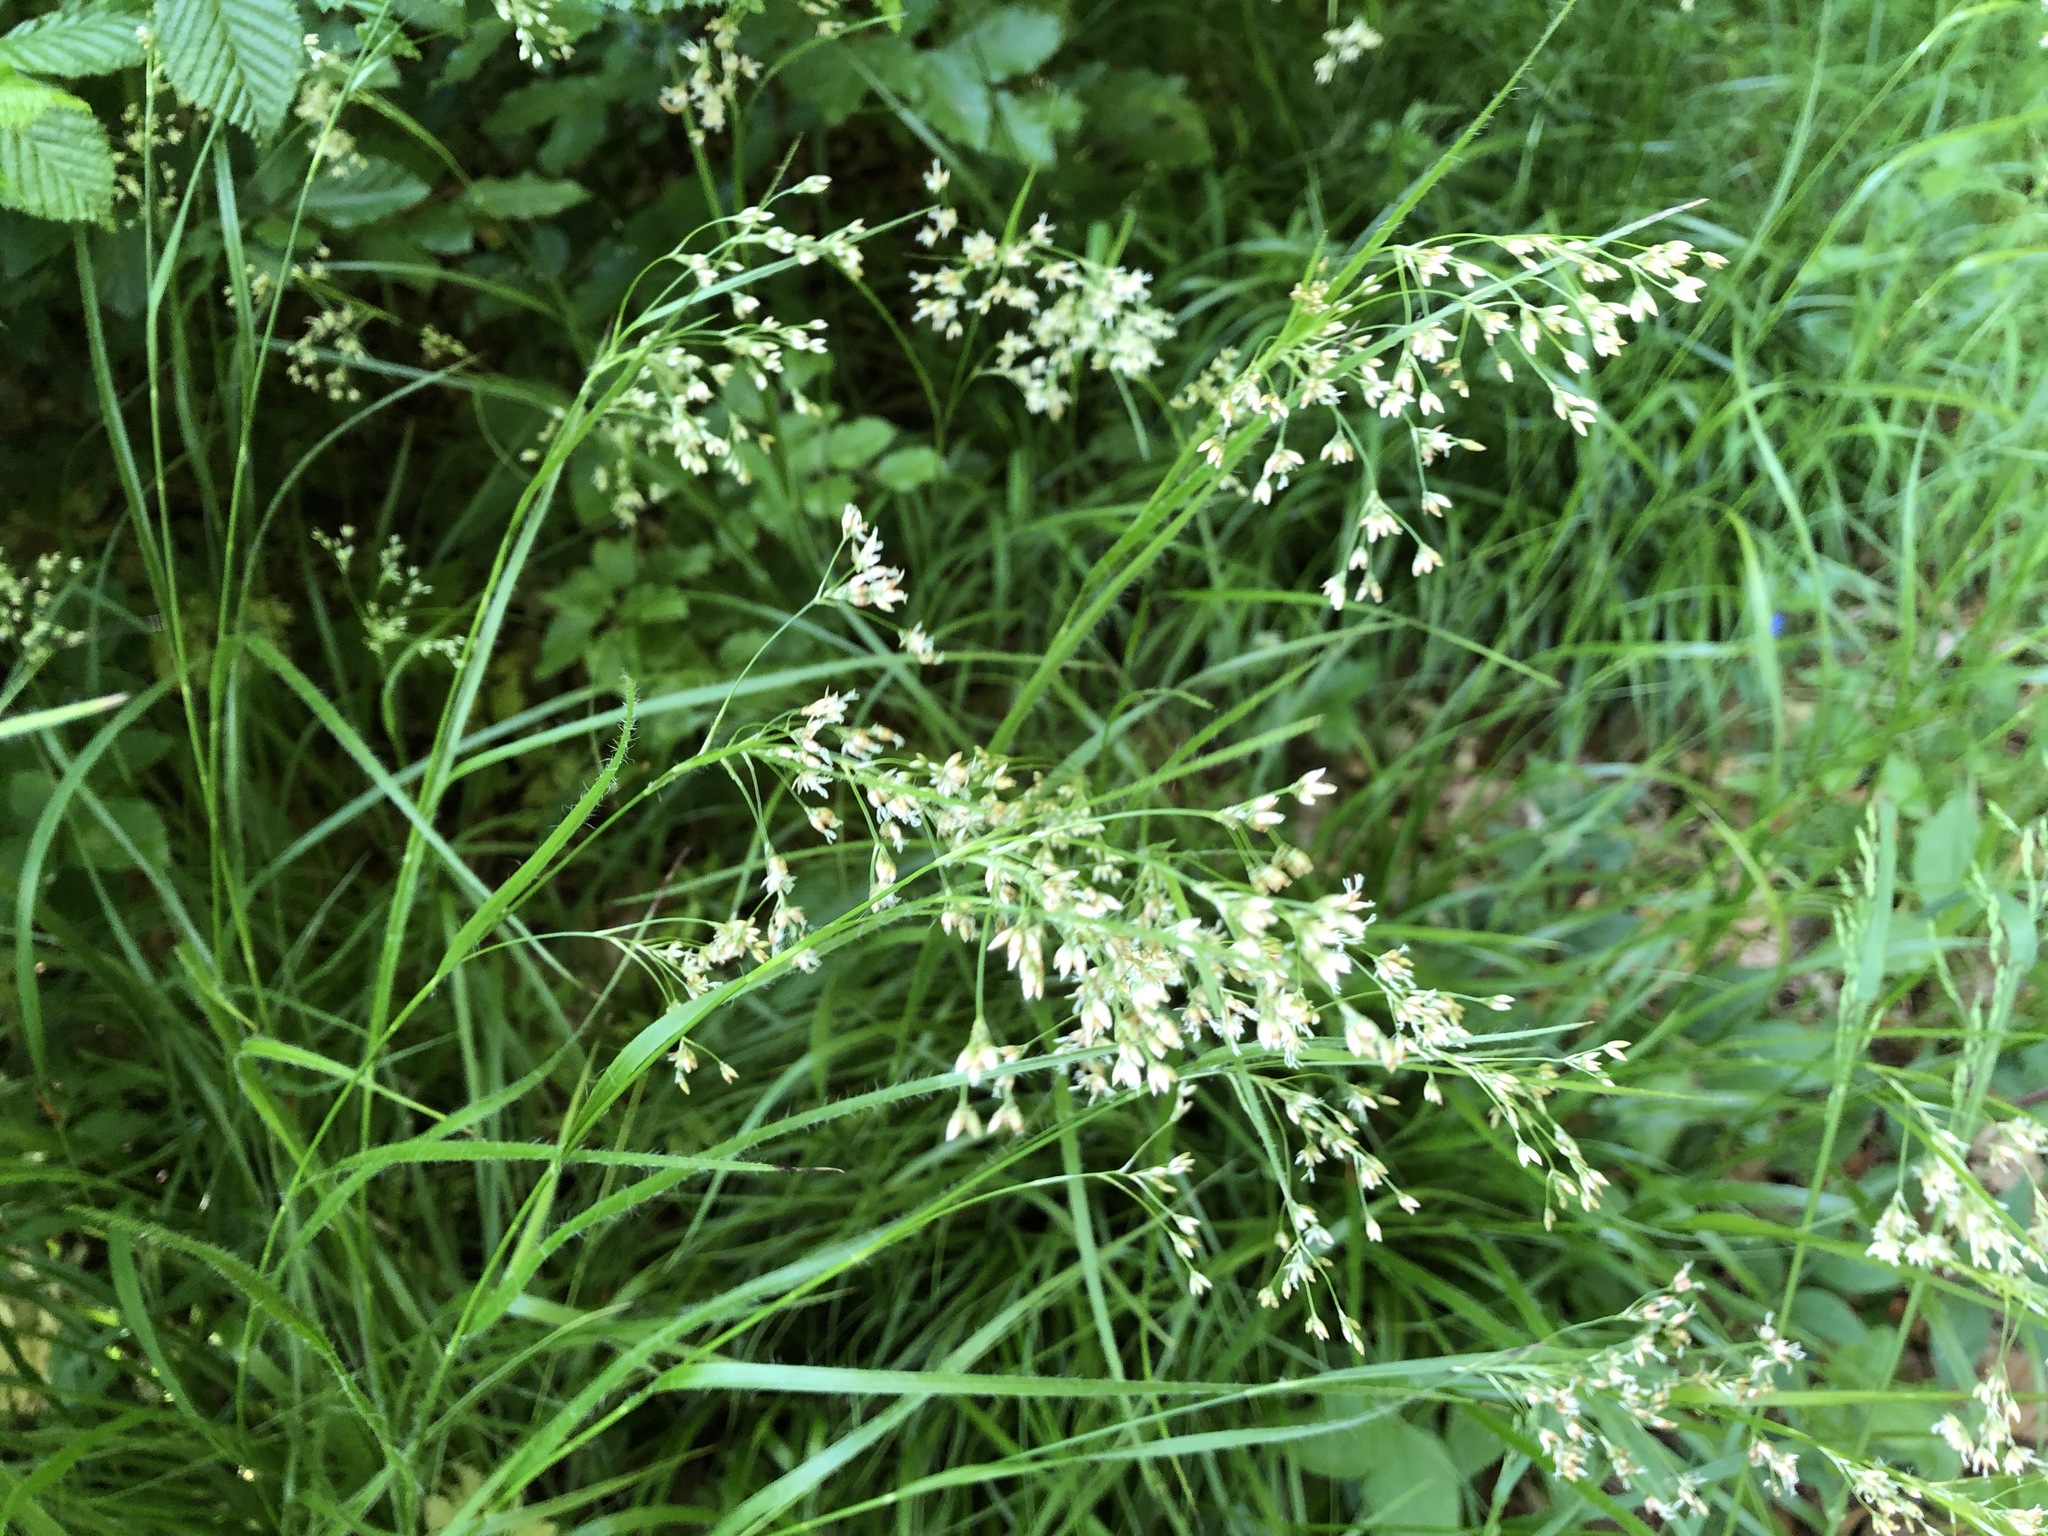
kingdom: Plantae
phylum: Tracheophyta
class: Liliopsida
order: Poales
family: Juncaceae
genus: Luzula
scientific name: Luzula luzuloides
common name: White wood-rush
